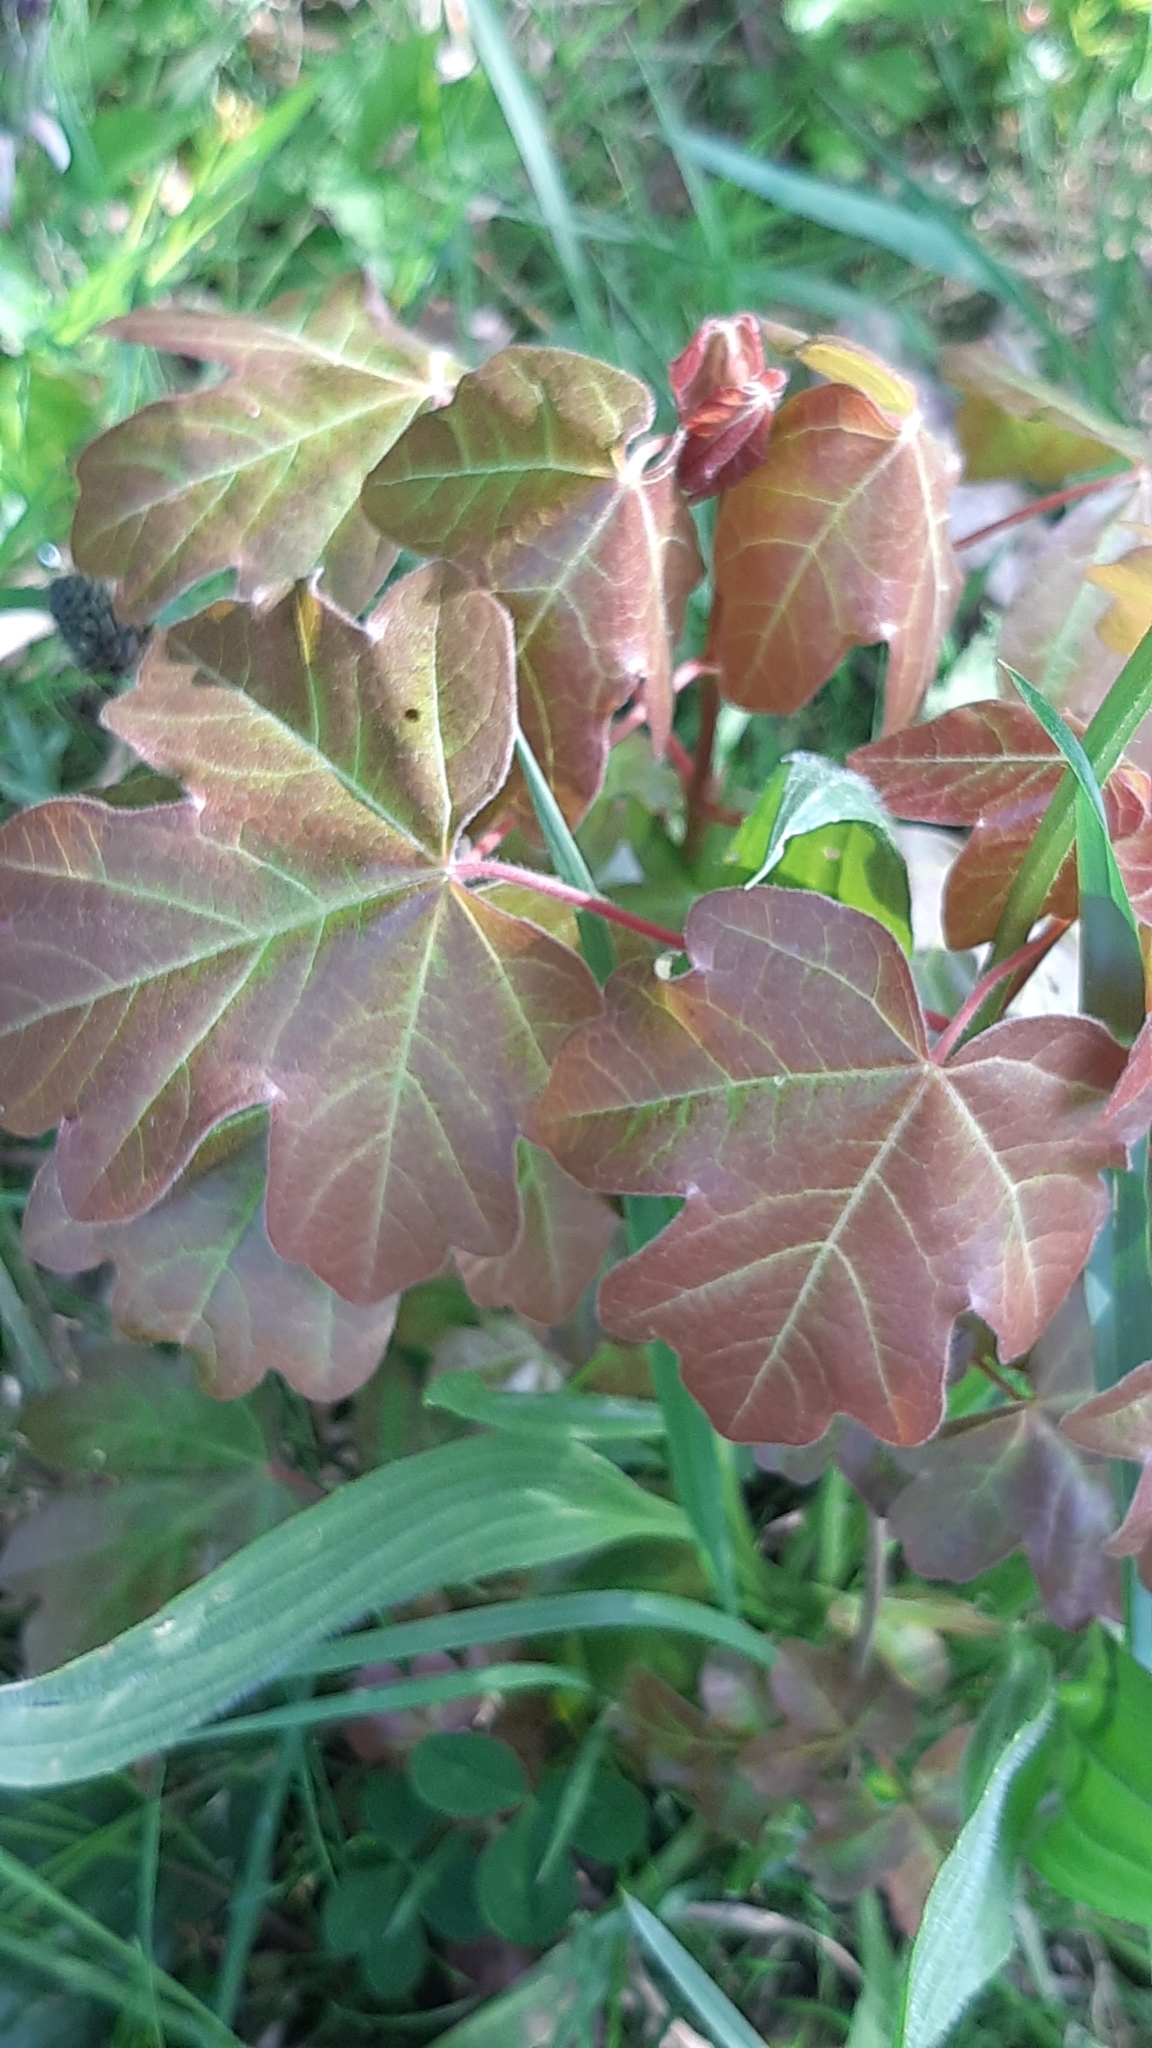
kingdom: Plantae
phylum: Tracheophyta
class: Magnoliopsida
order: Sapindales
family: Sapindaceae
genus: Acer
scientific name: Acer campestre
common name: Field maple
